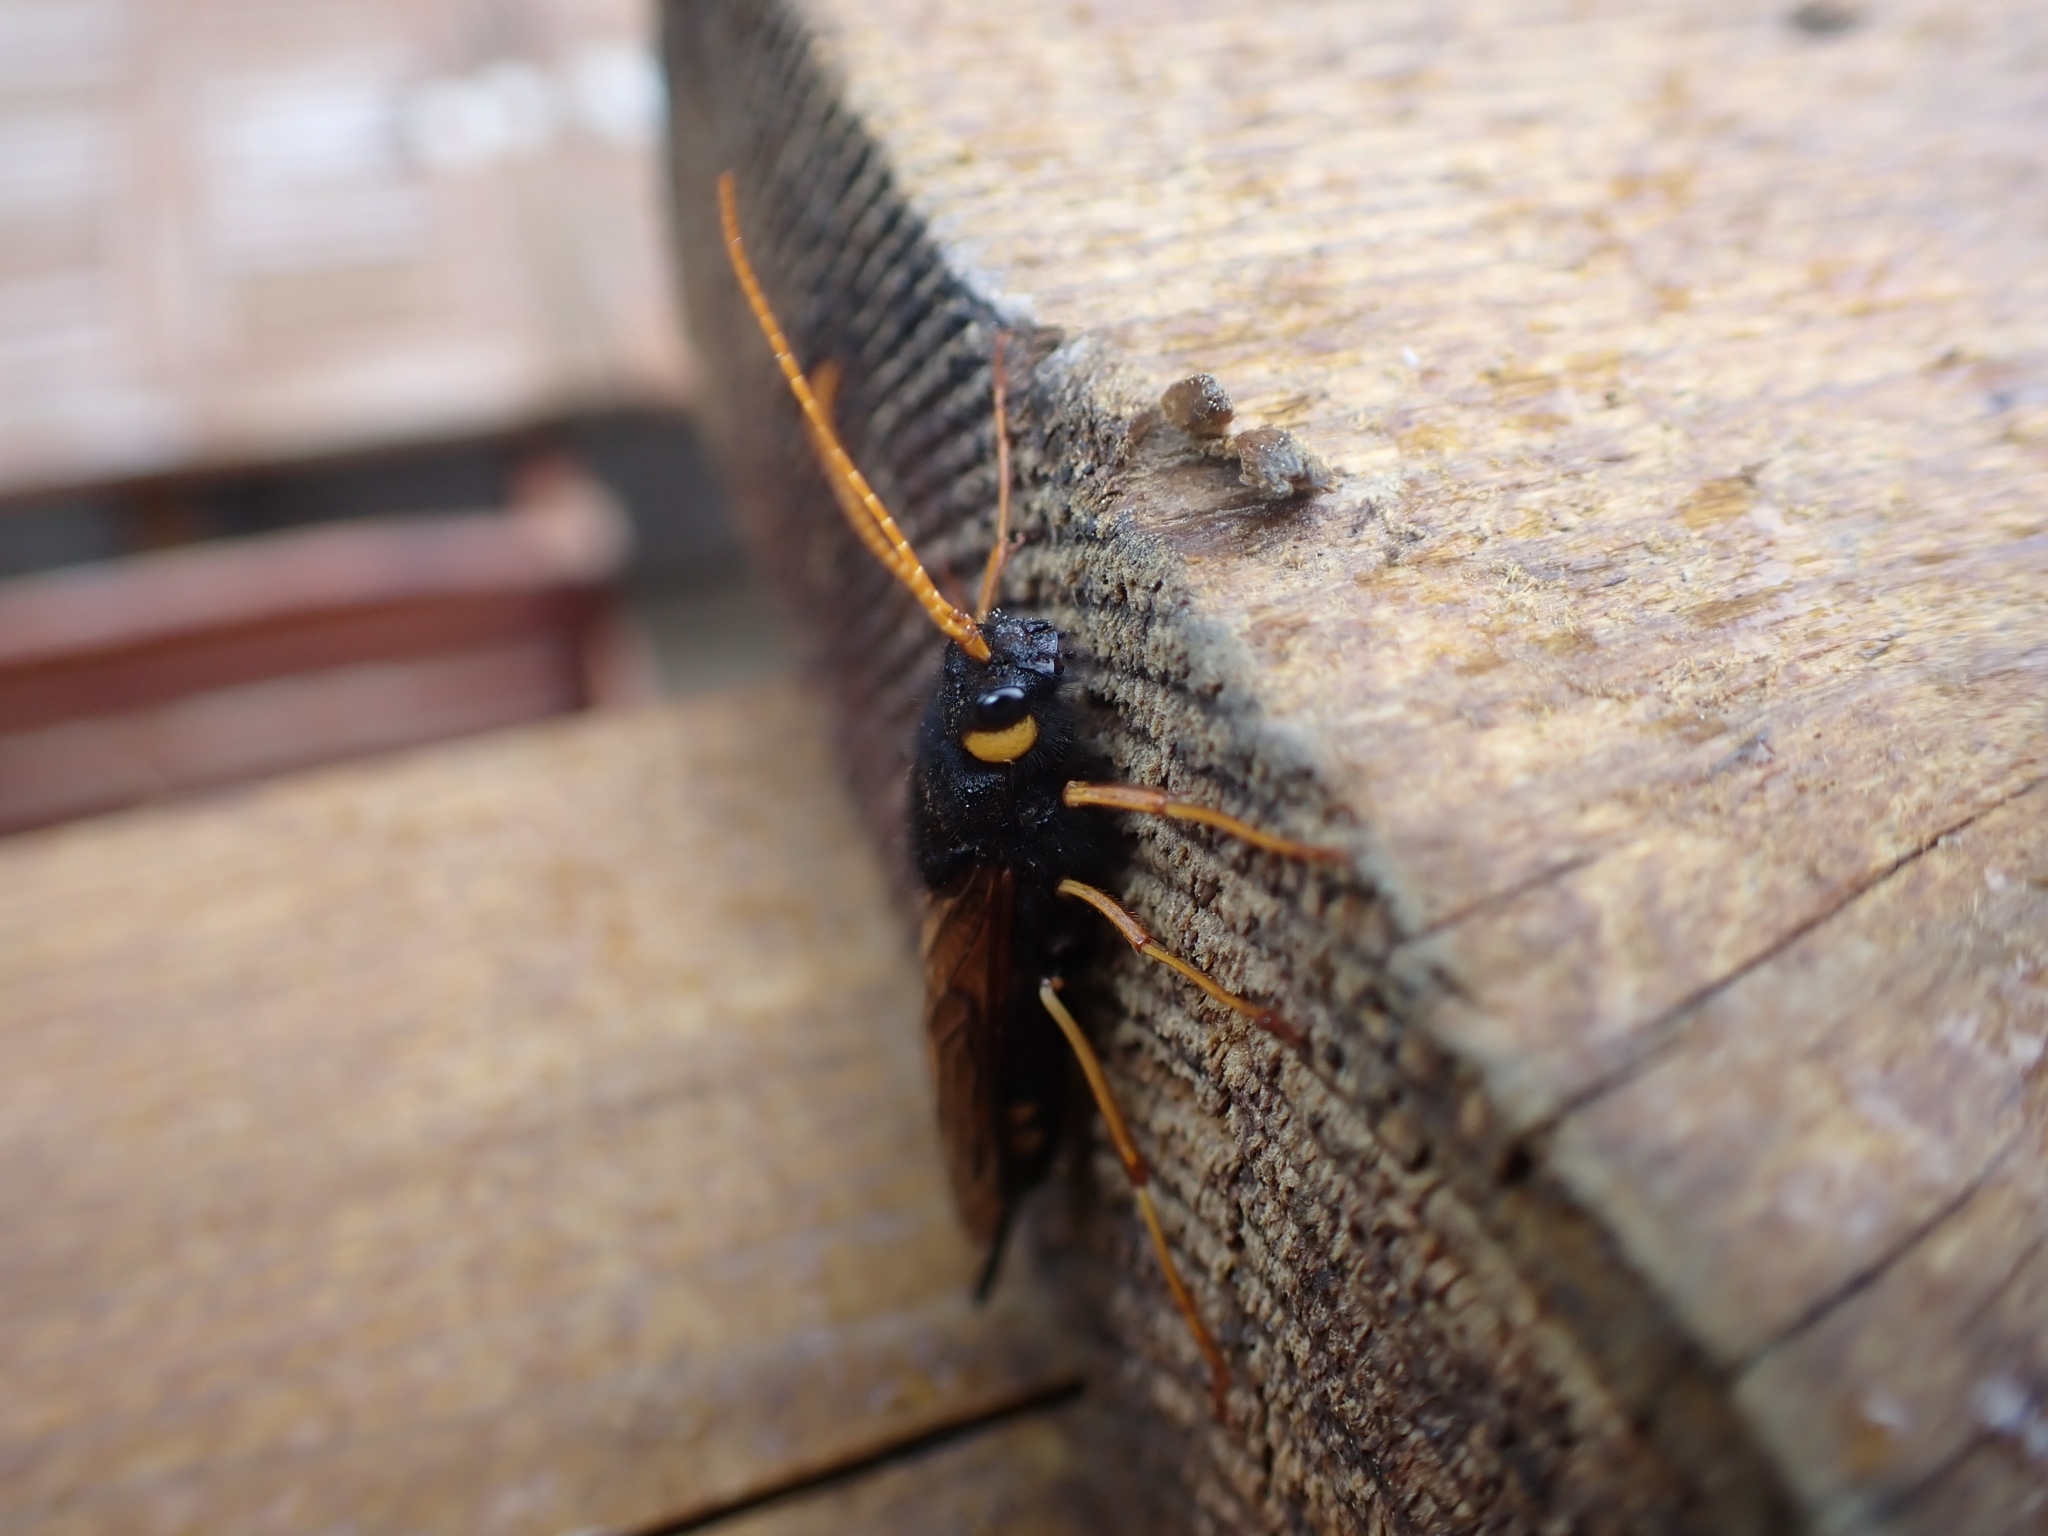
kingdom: Animalia
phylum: Arthropoda
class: Insecta
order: Hymenoptera
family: Siricidae
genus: Urocerus
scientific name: Urocerus flavicornis
